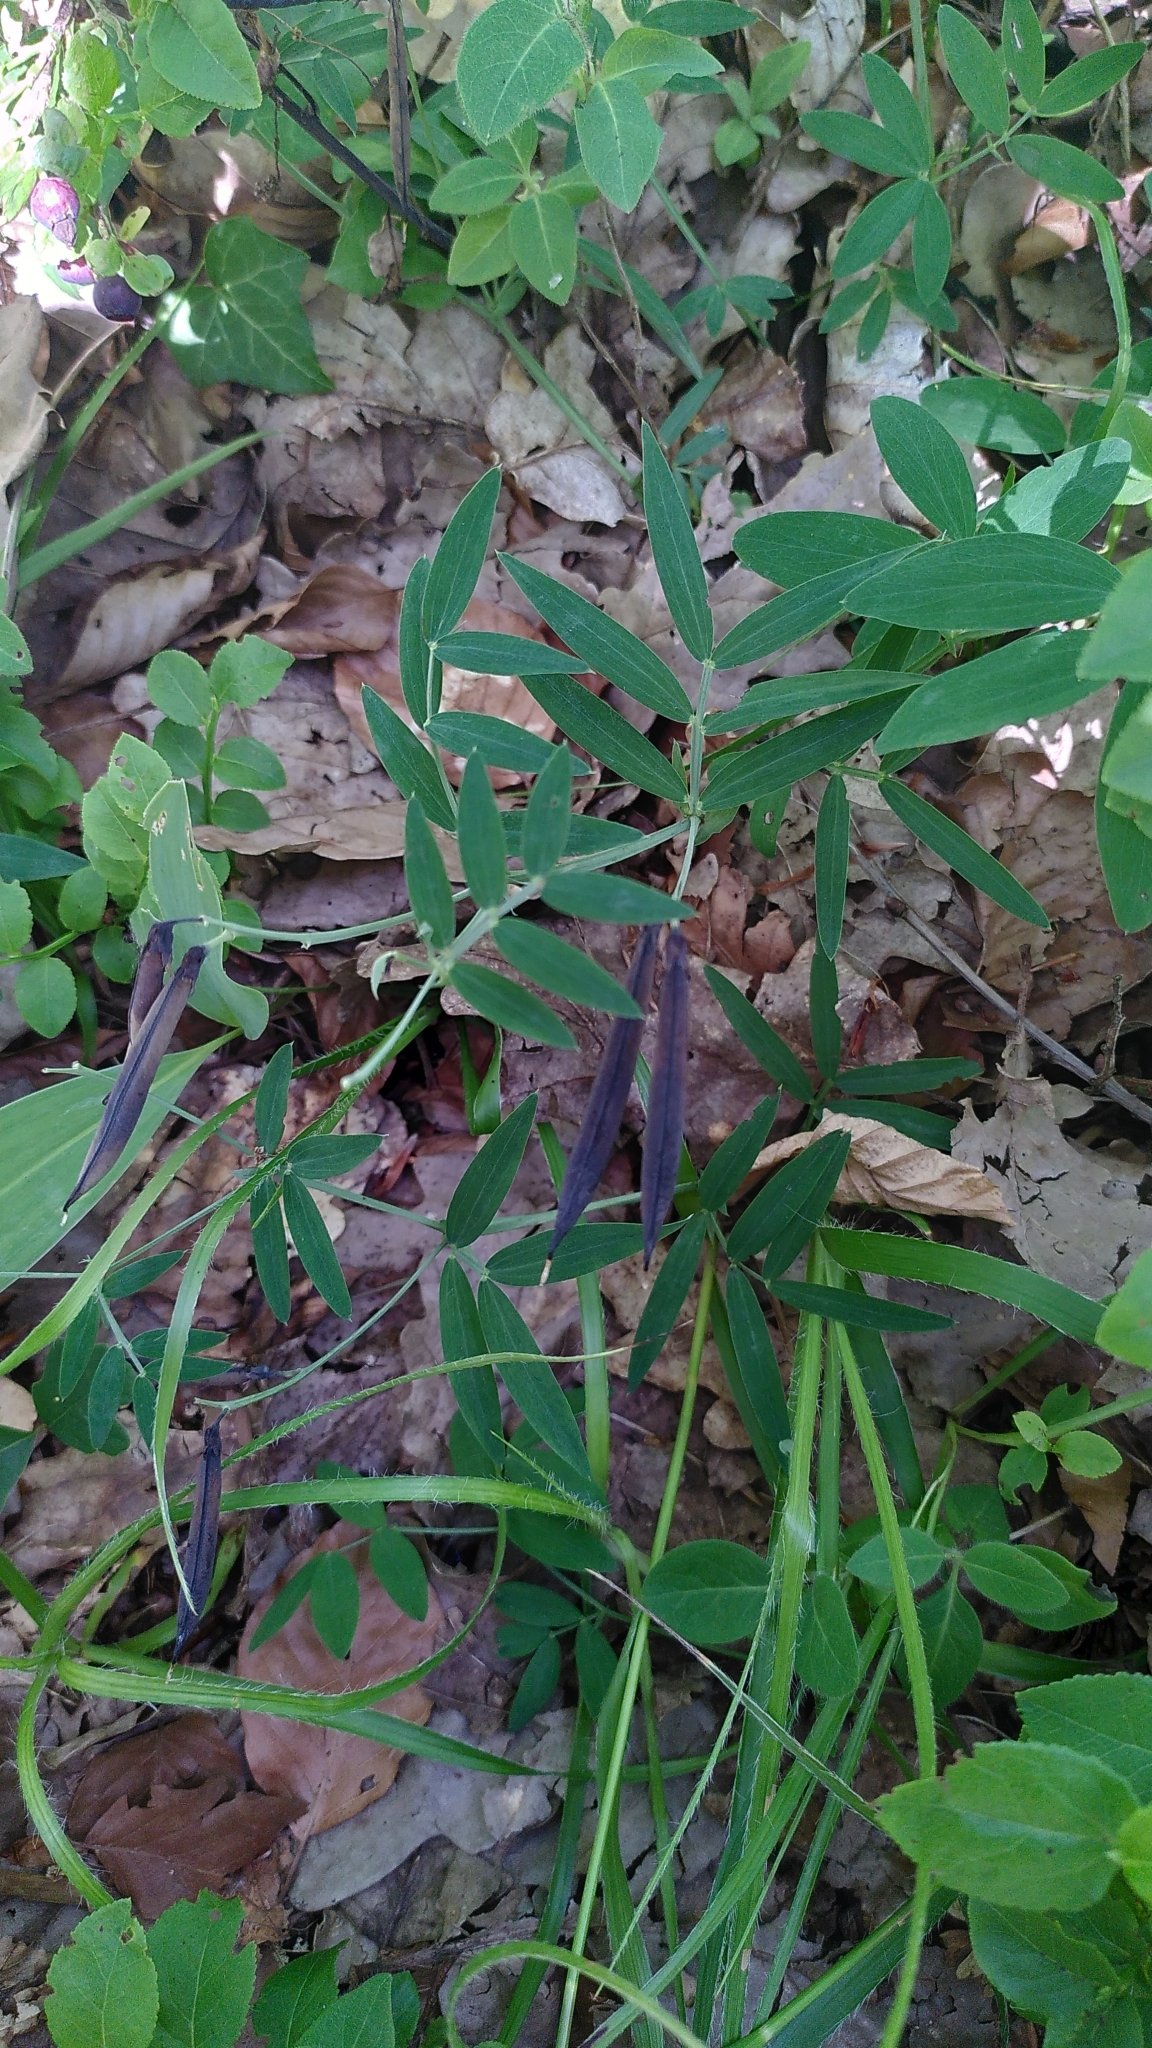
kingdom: Plantae
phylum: Tracheophyta
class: Magnoliopsida
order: Fabales
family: Fabaceae
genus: Lathyrus
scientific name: Lathyrus linifolius
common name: Bitter-vetch
